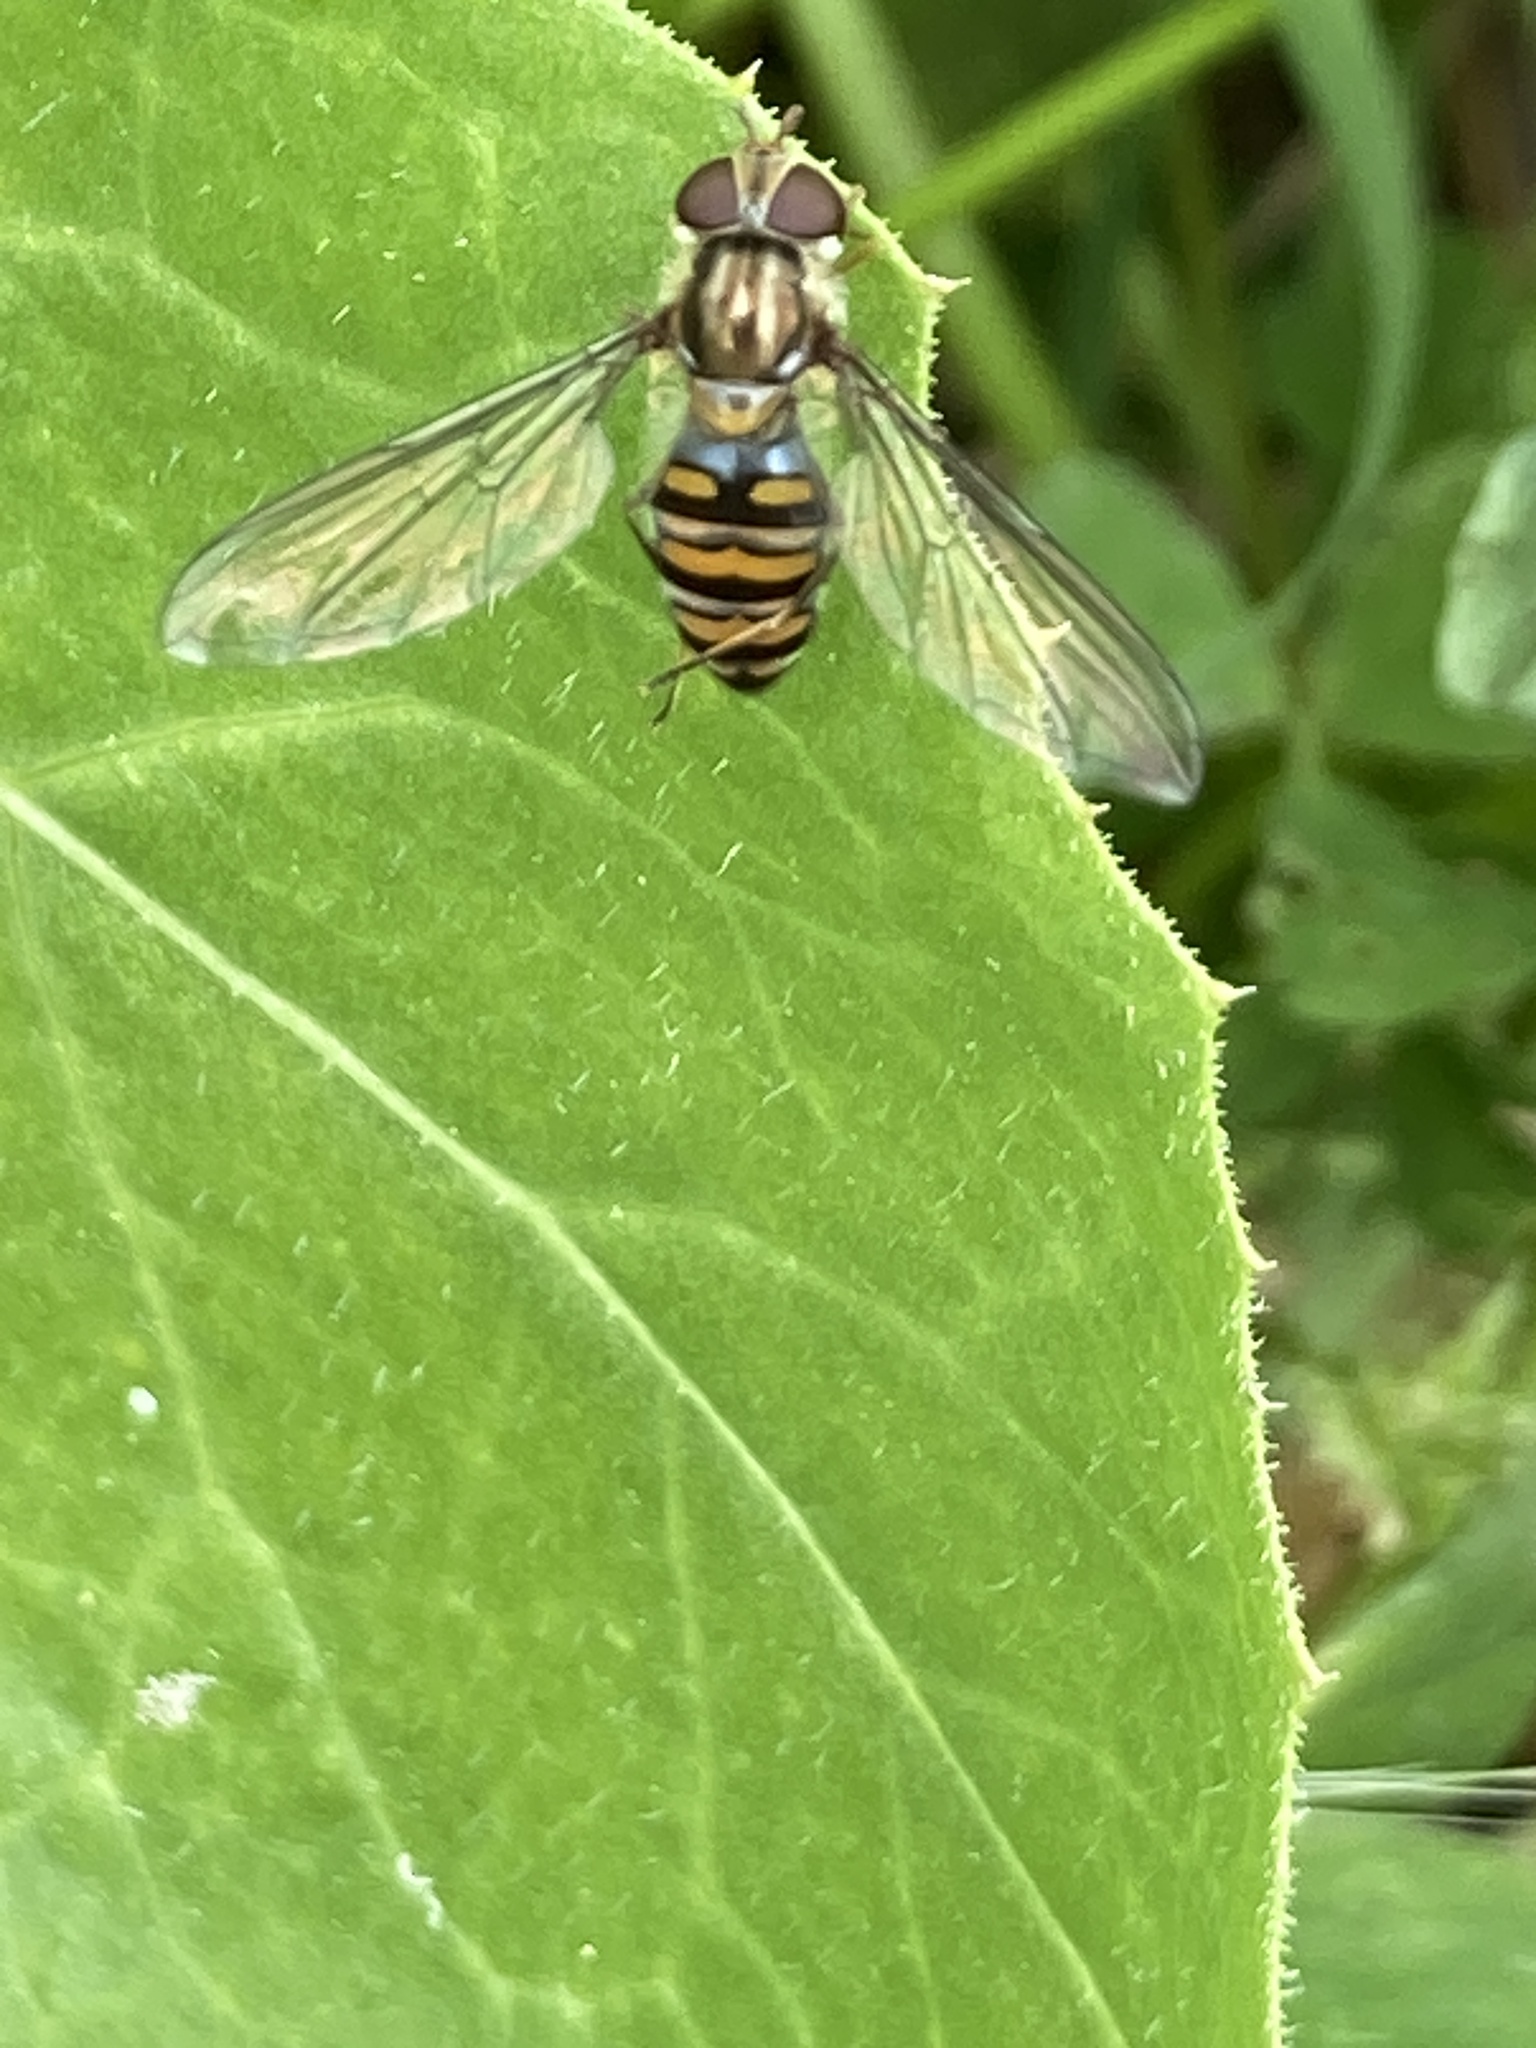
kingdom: Animalia
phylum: Arthropoda
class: Insecta
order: Diptera
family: Syrphidae
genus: Episyrphus
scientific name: Episyrphus balteatus
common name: Marmalade hoverfly
